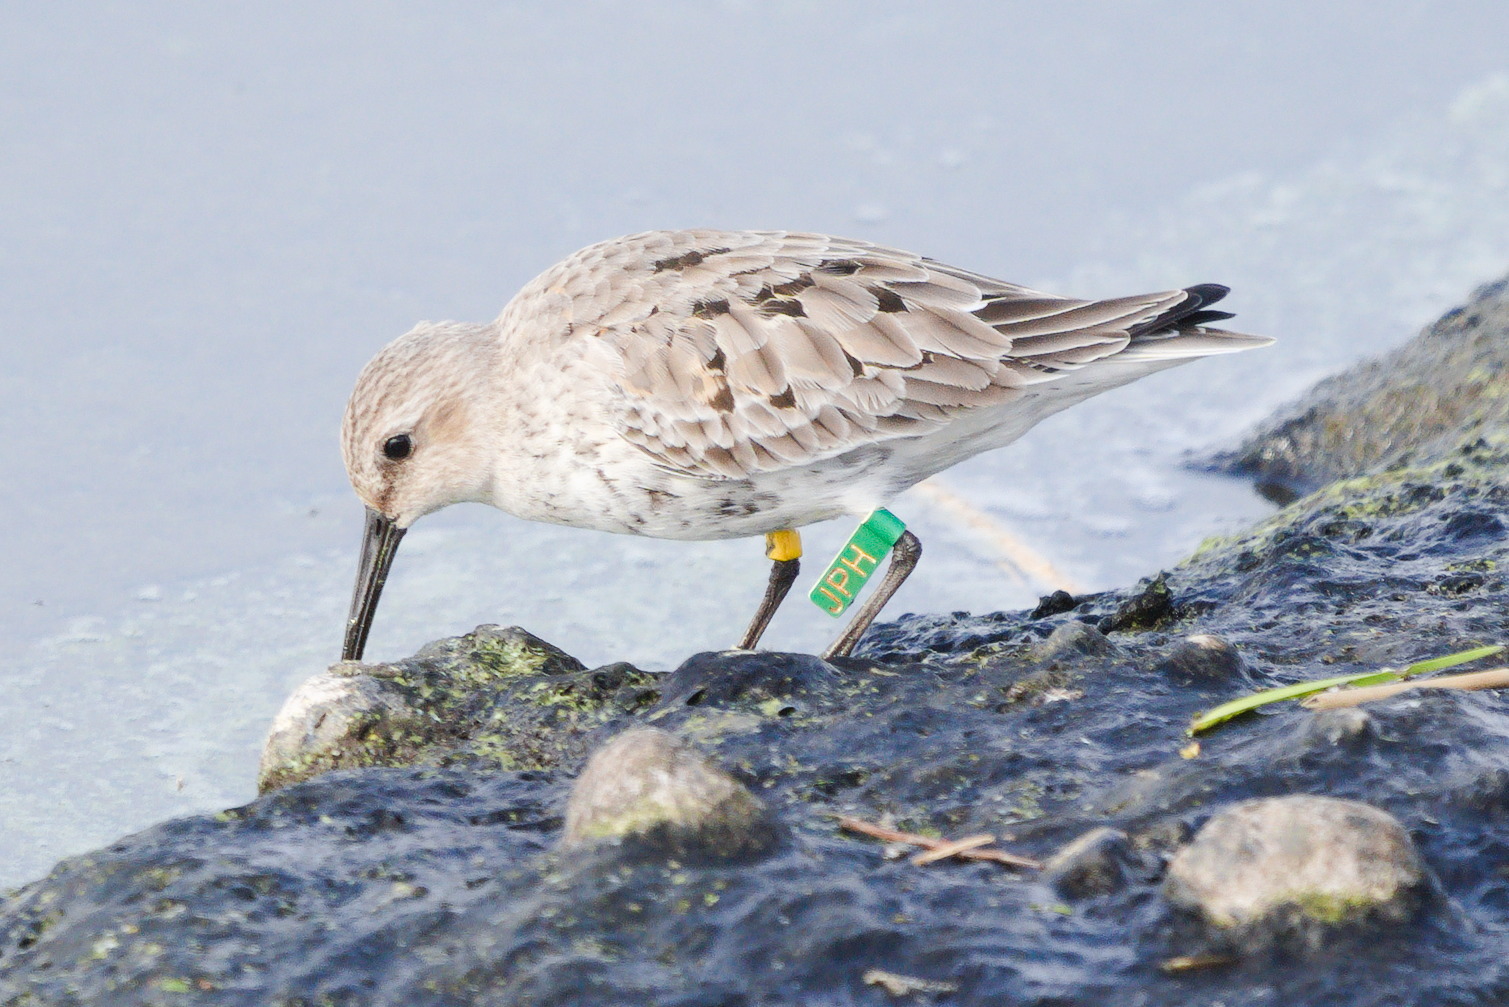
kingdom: Animalia
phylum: Chordata
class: Aves
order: Charadriiformes
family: Scolopacidae
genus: Calidris
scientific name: Calidris alpina
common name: Dunlin
